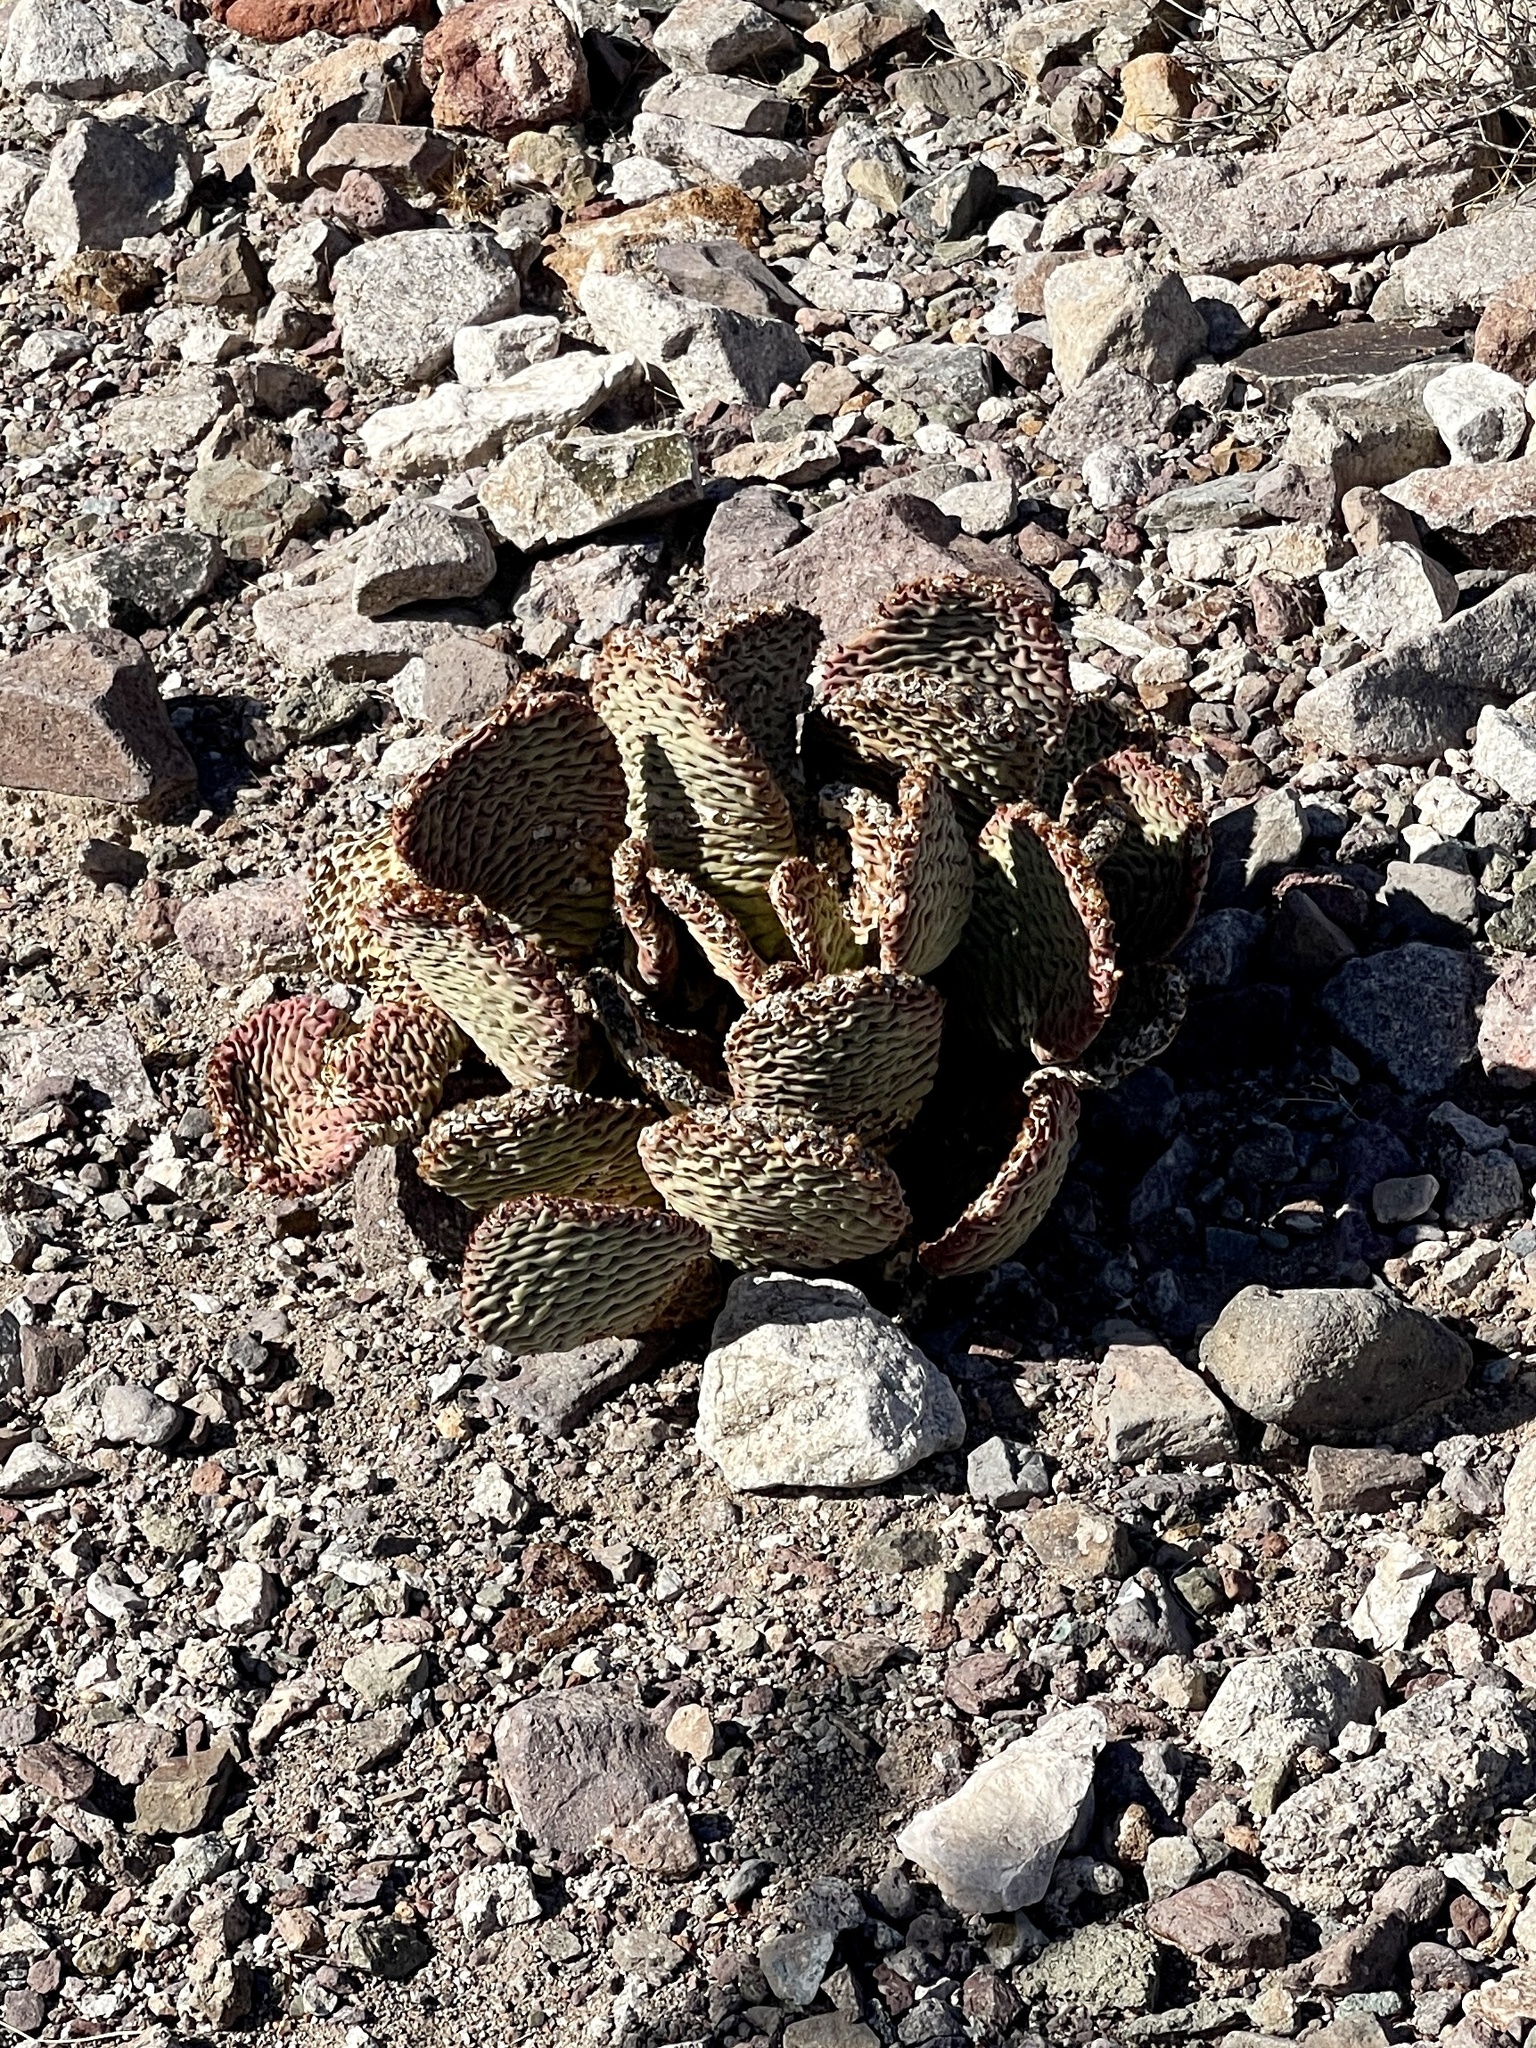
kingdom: Plantae
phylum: Tracheophyta
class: Magnoliopsida
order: Caryophyllales
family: Cactaceae
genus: Opuntia
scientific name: Opuntia basilaris
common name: Beavertail prickly-pear
